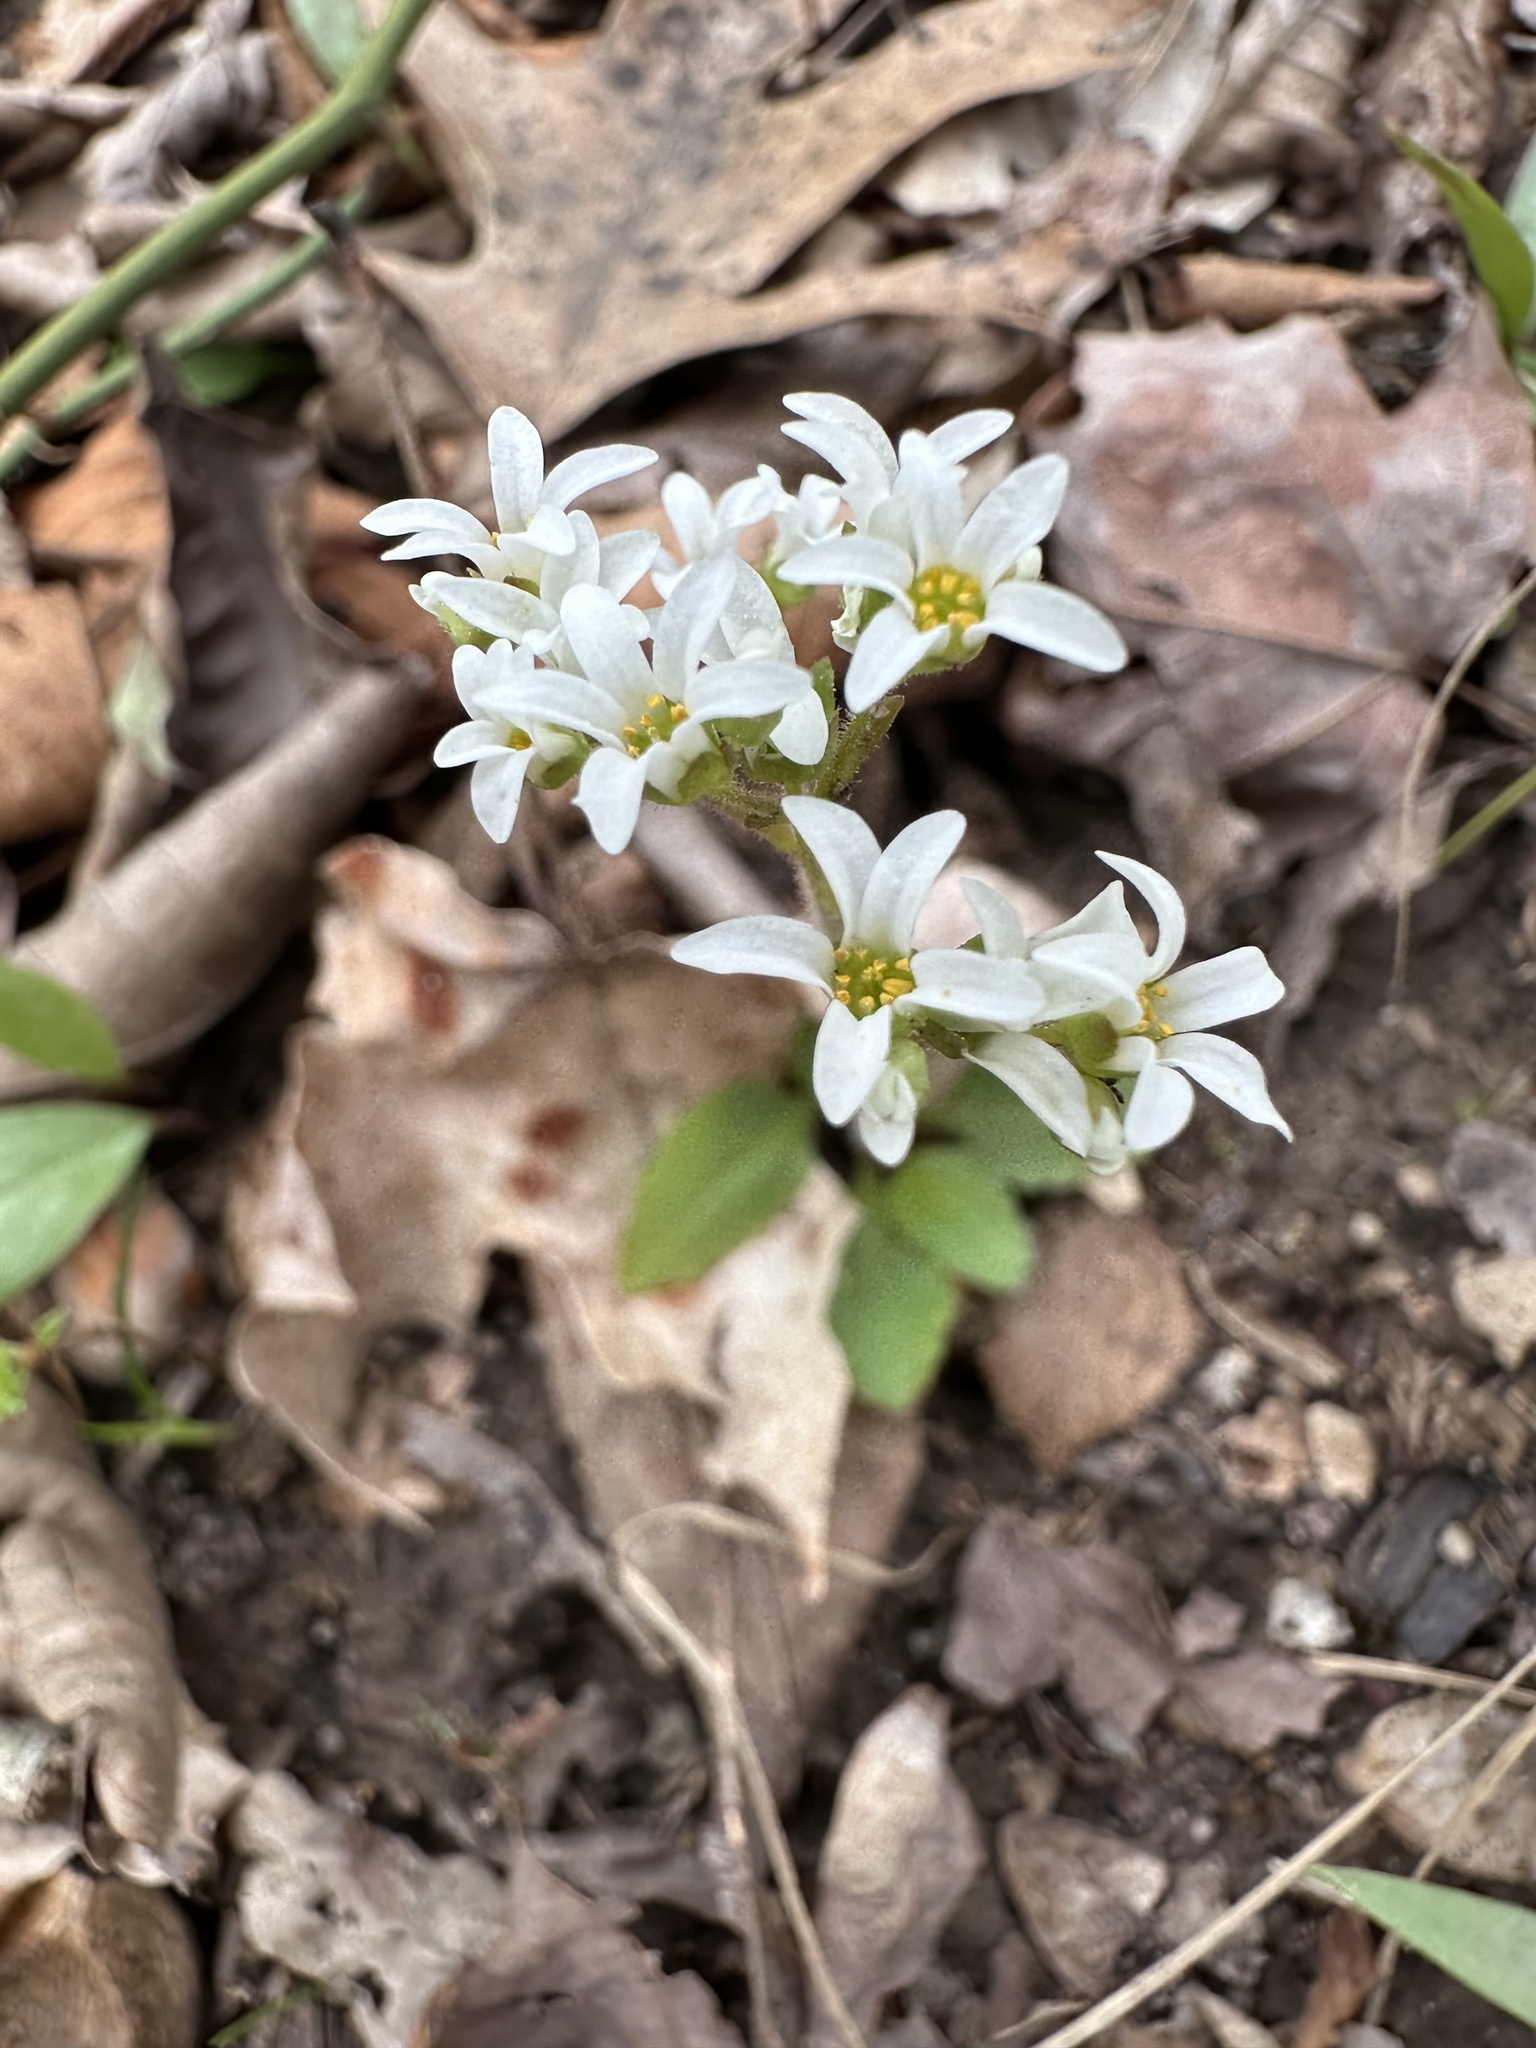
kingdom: Plantae
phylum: Tracheophyta
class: Magnoliopsida
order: Saxifragales
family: Saxifragaceae
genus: Micranthes
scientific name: Micranthes virginiensis
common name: Early saxifrage
